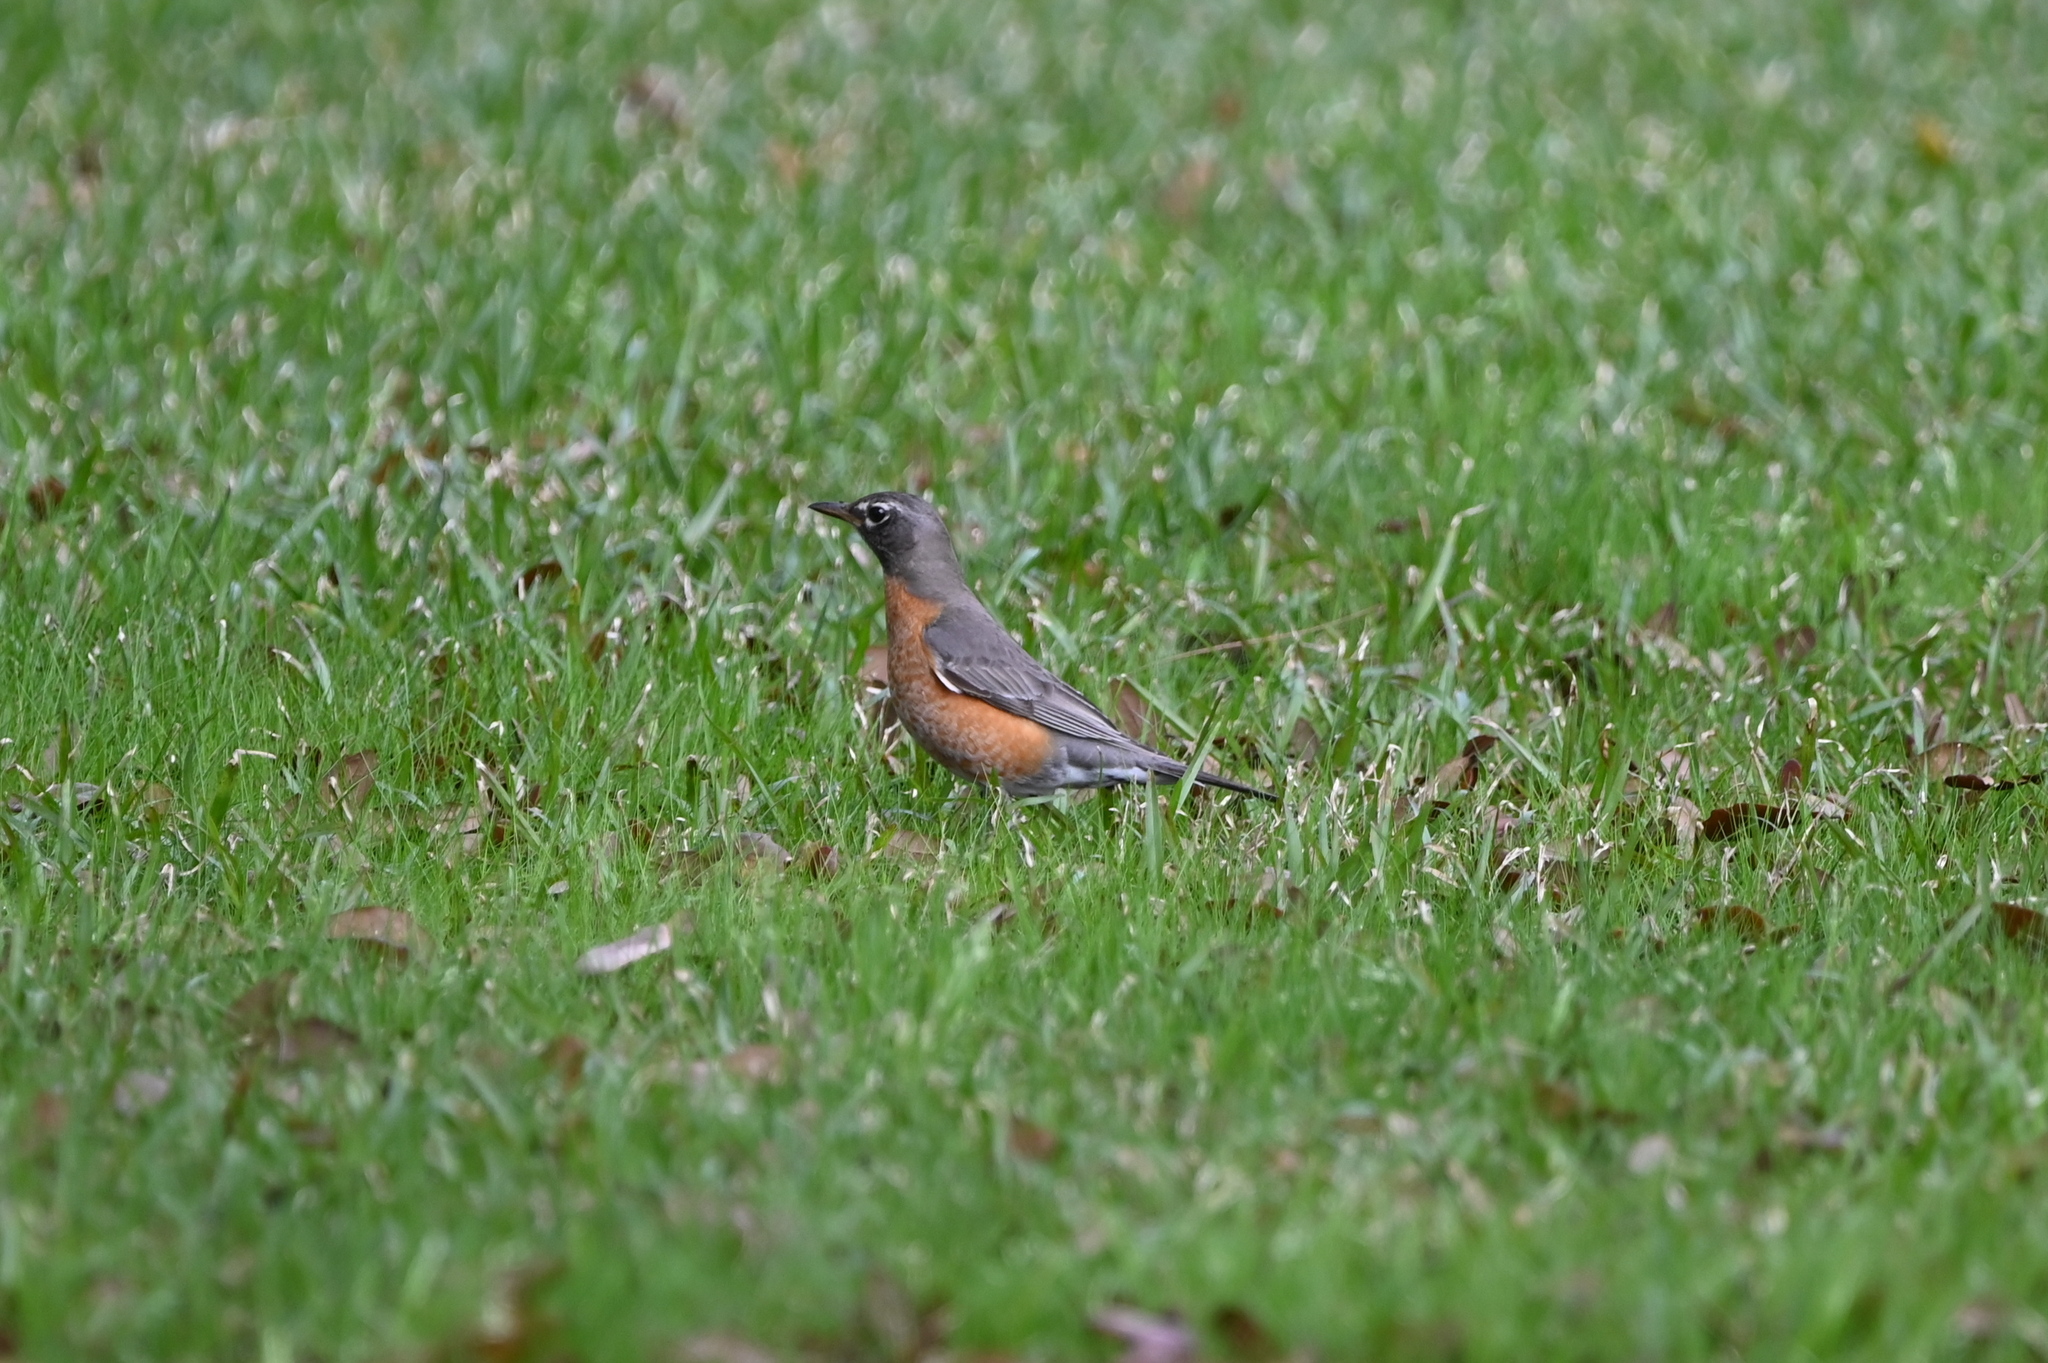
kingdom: Animalia
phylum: Chordata
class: Aves
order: Passeriformes
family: Turdidae
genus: Turdus
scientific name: Turdus migratorius
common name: American robin
